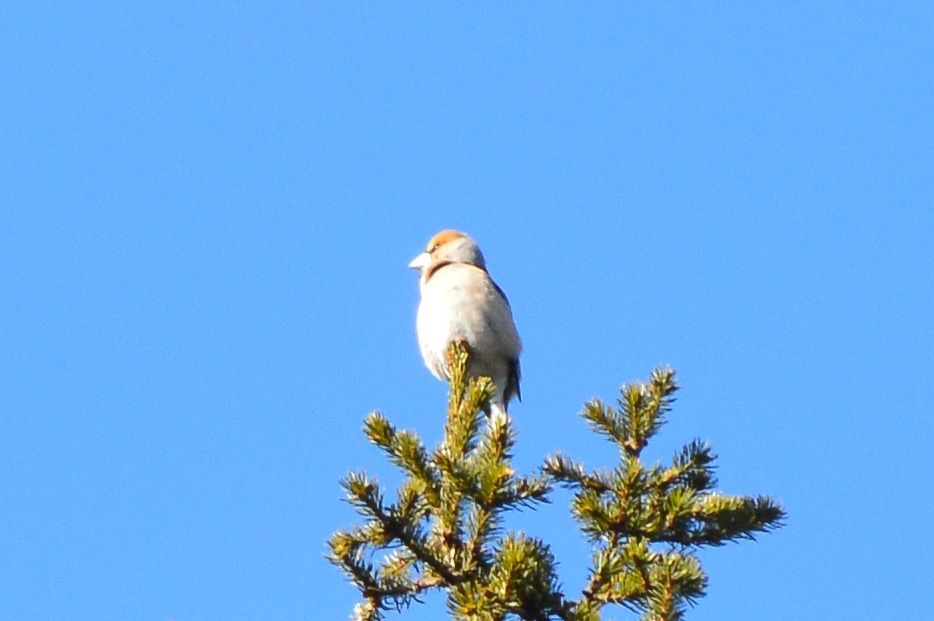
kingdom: Animalia
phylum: Chordata
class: Aves
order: Passeriformes
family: Fringillidae
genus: Coccothraustes
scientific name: Coccothraustes coccothraustes
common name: Hawfinch
